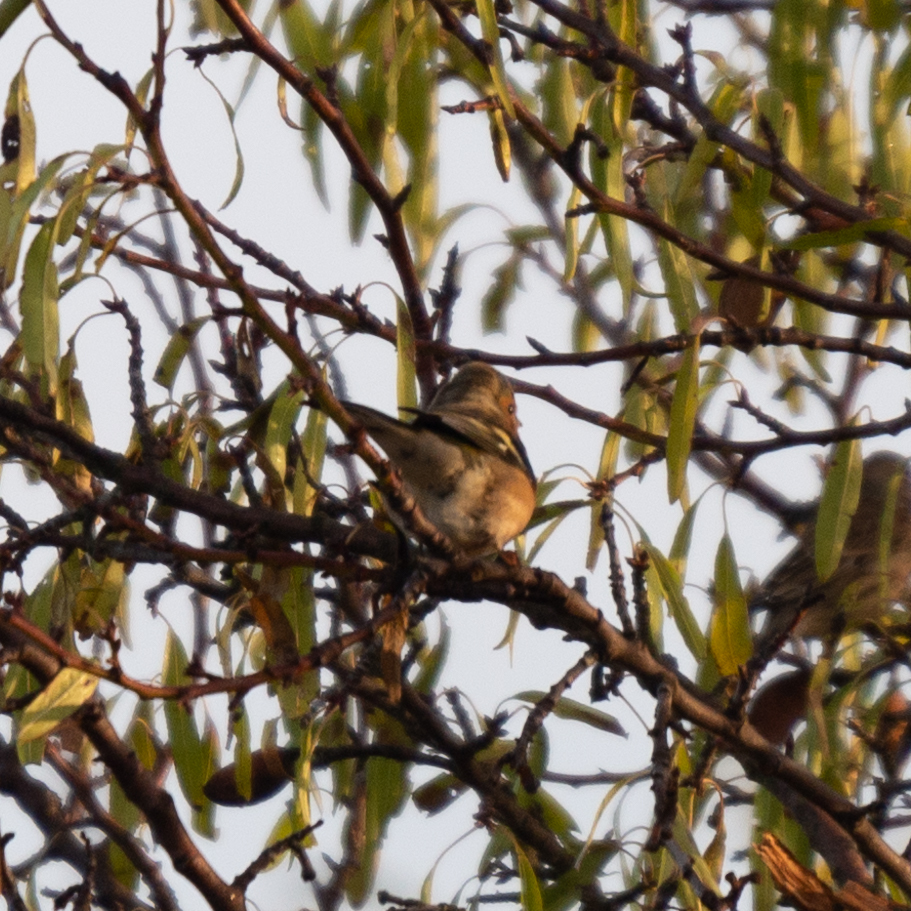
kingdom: Animalia
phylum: Chordata
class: Aves
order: Passeriformes
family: Fringillidae
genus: Fringilla
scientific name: Fringilla coelebs
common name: Common chaffinch
